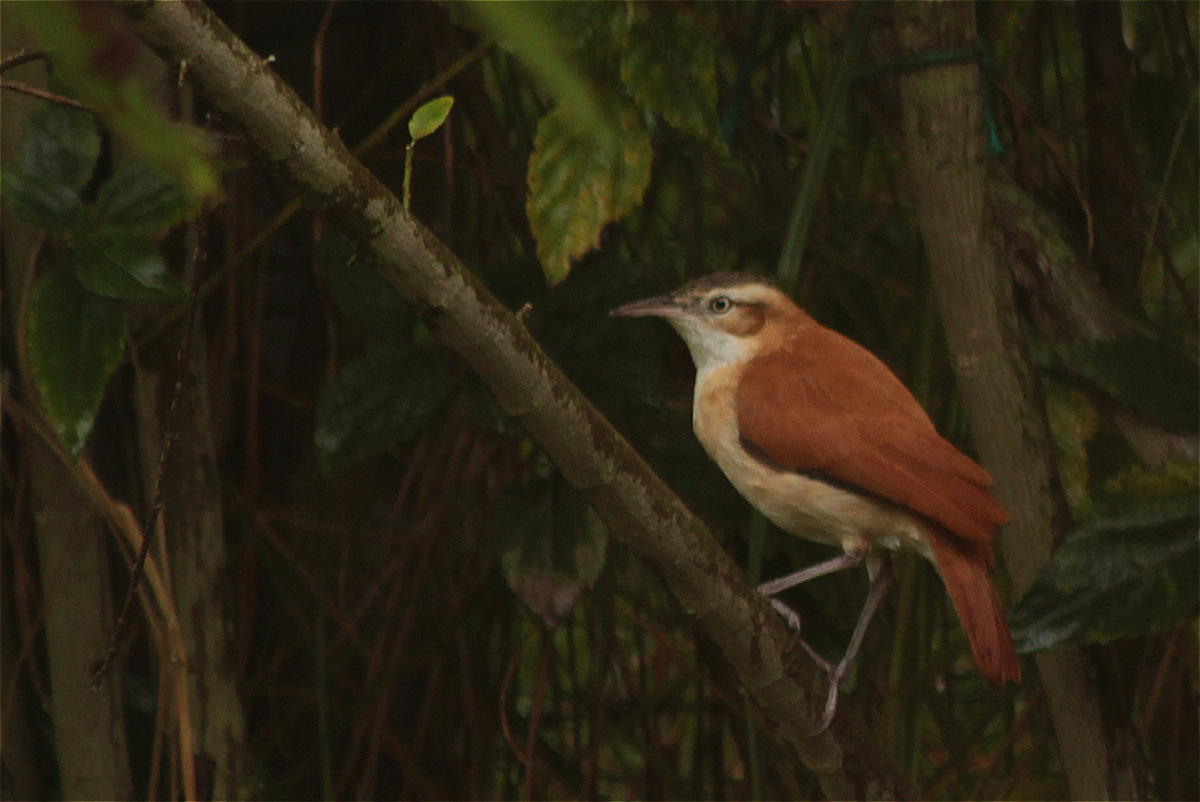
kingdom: Animalia
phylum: Chordata
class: Aves
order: Passeriformes
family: Furnariidae
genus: Furnarius
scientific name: Furnarius leucopus
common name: Pale-legged hornero
